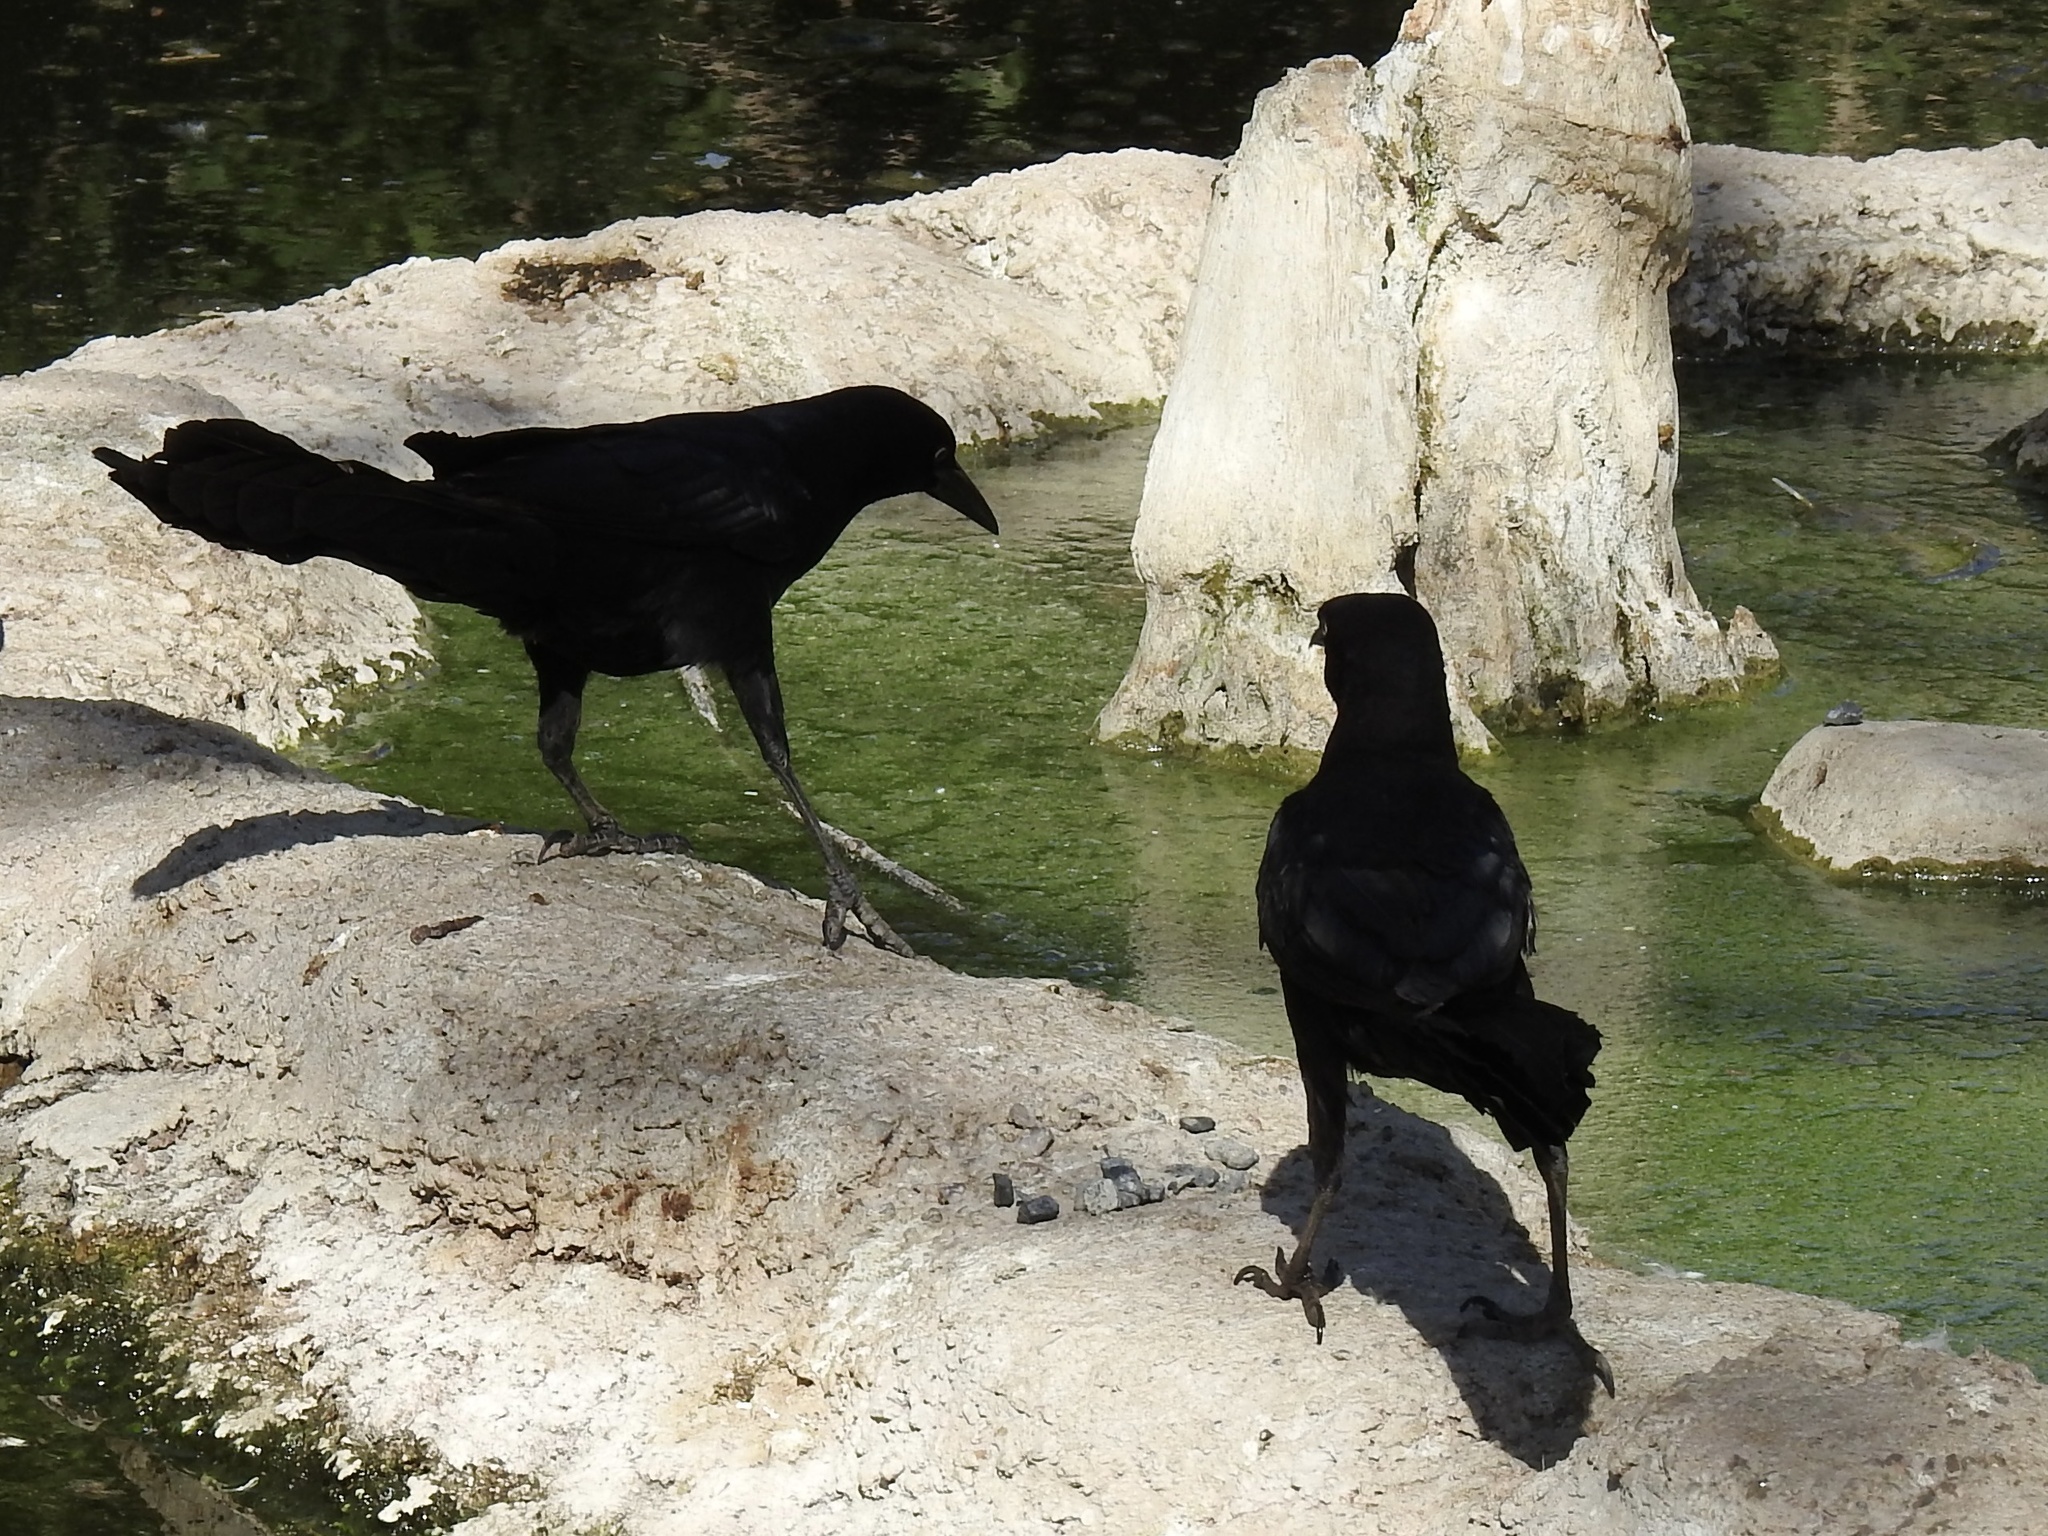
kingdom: Animalia
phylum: Chordata
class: Aves
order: Passeriformes
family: Icteridae
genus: Quiscalus
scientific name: Quiscalus mexicanus
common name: Great-tailed grackle
